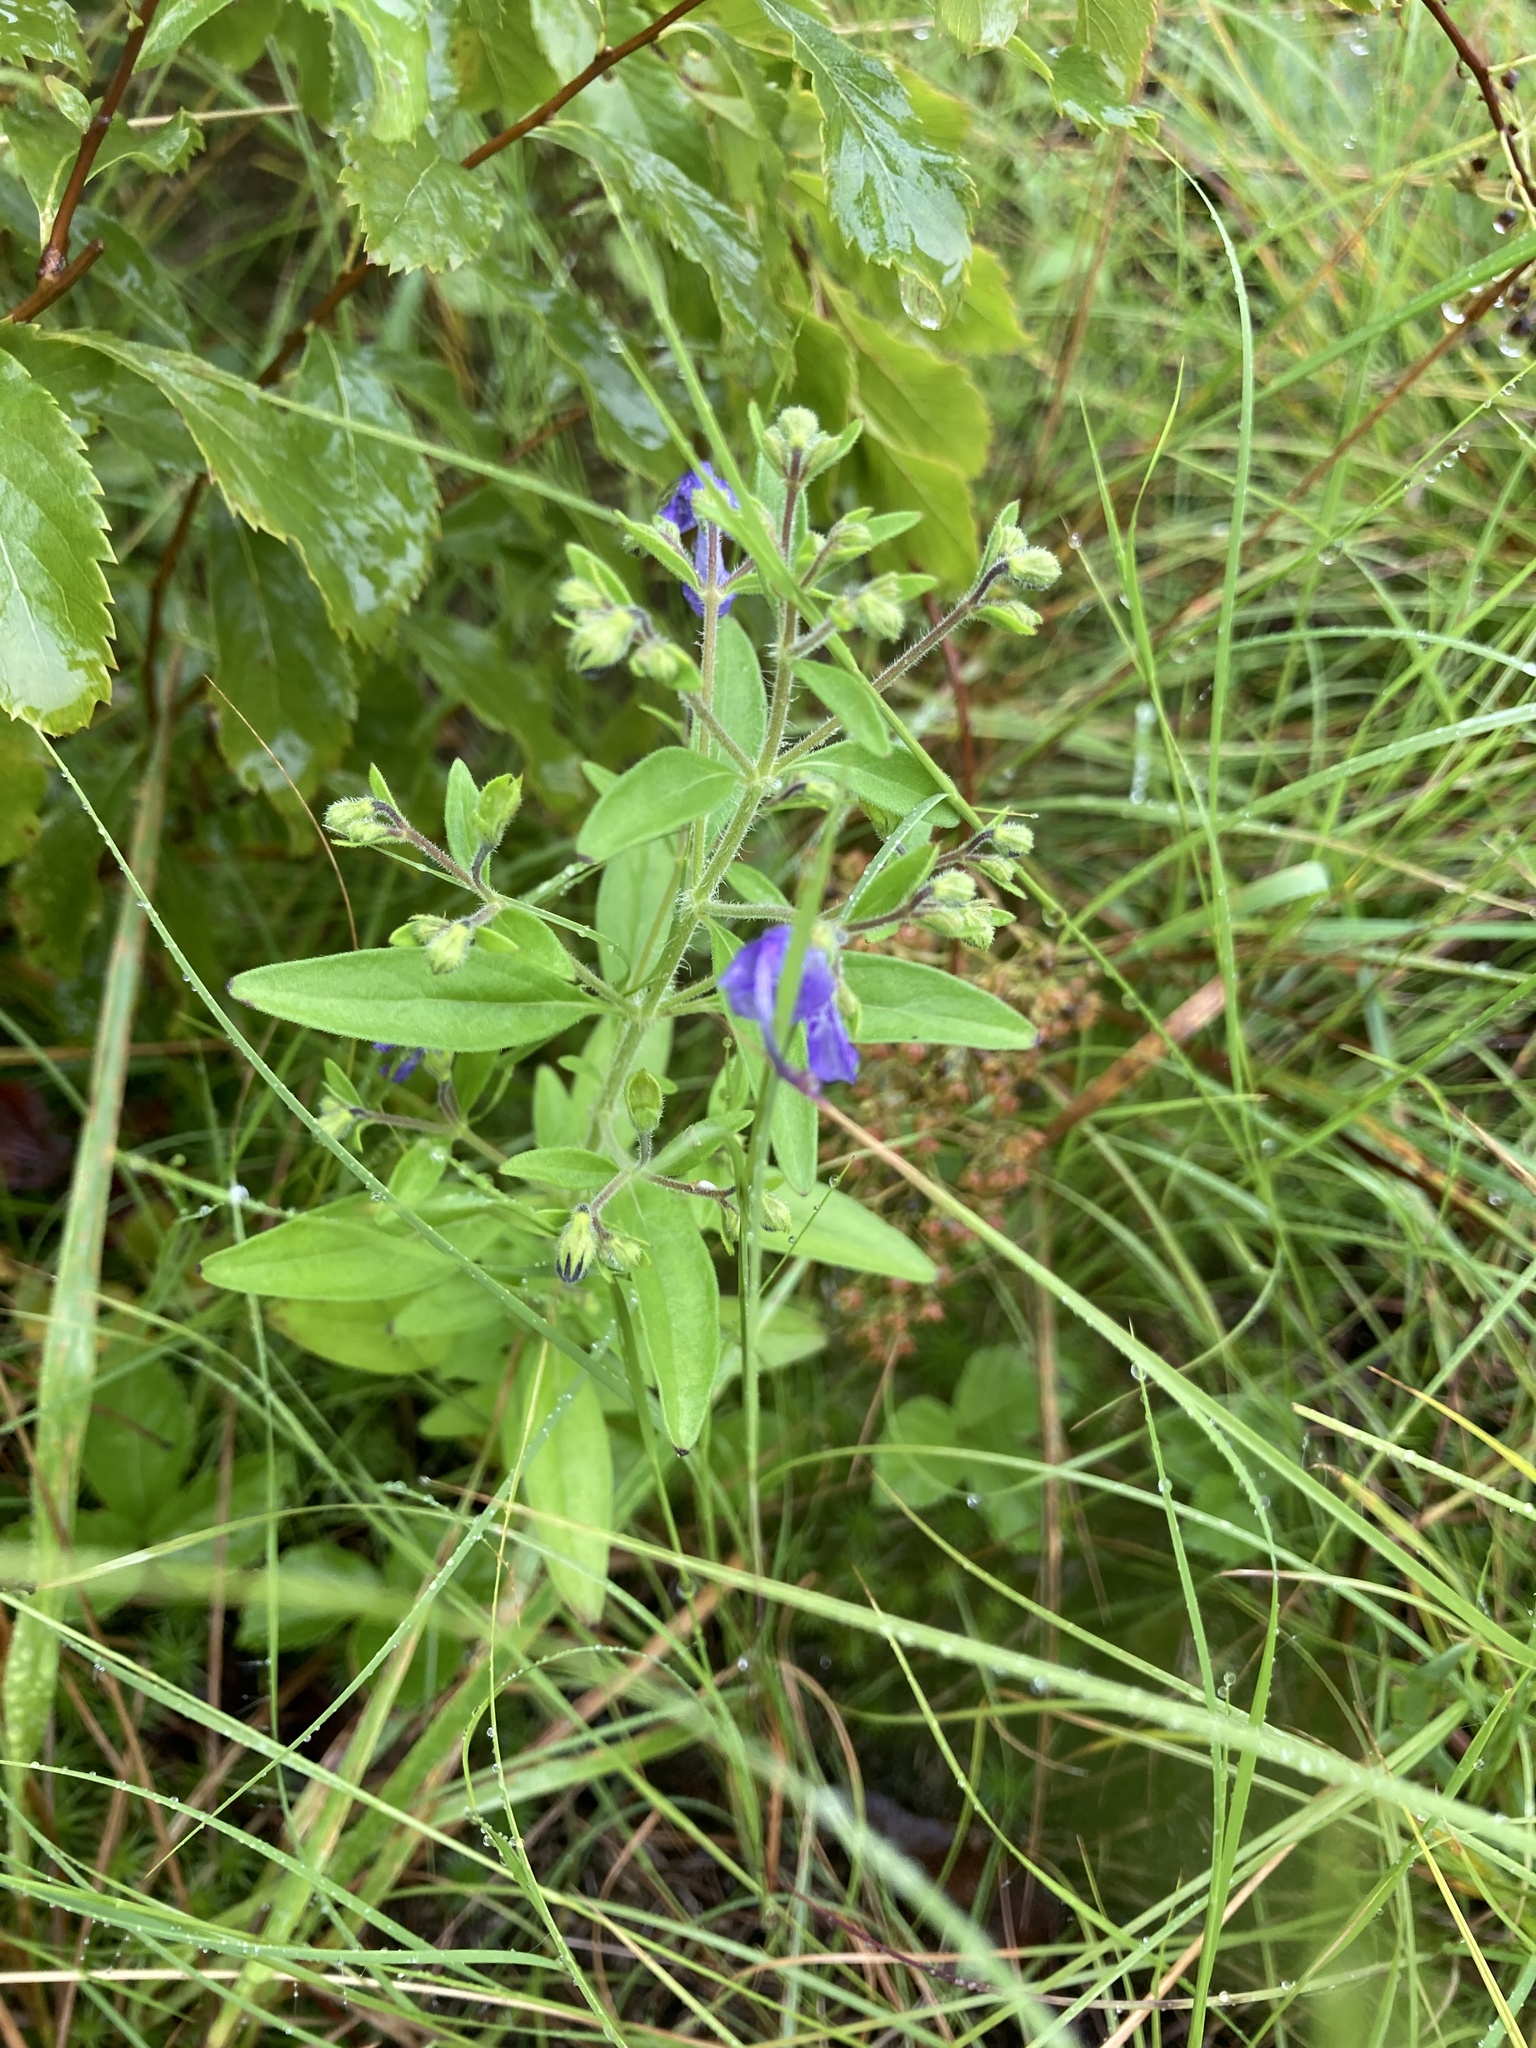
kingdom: Plantae
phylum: Tracheophyta
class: Magnoliopsida
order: Lamiales
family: Lamiaceae
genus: Trichostema
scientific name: Trichostema dichotomum
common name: Bastard pennyroyal
